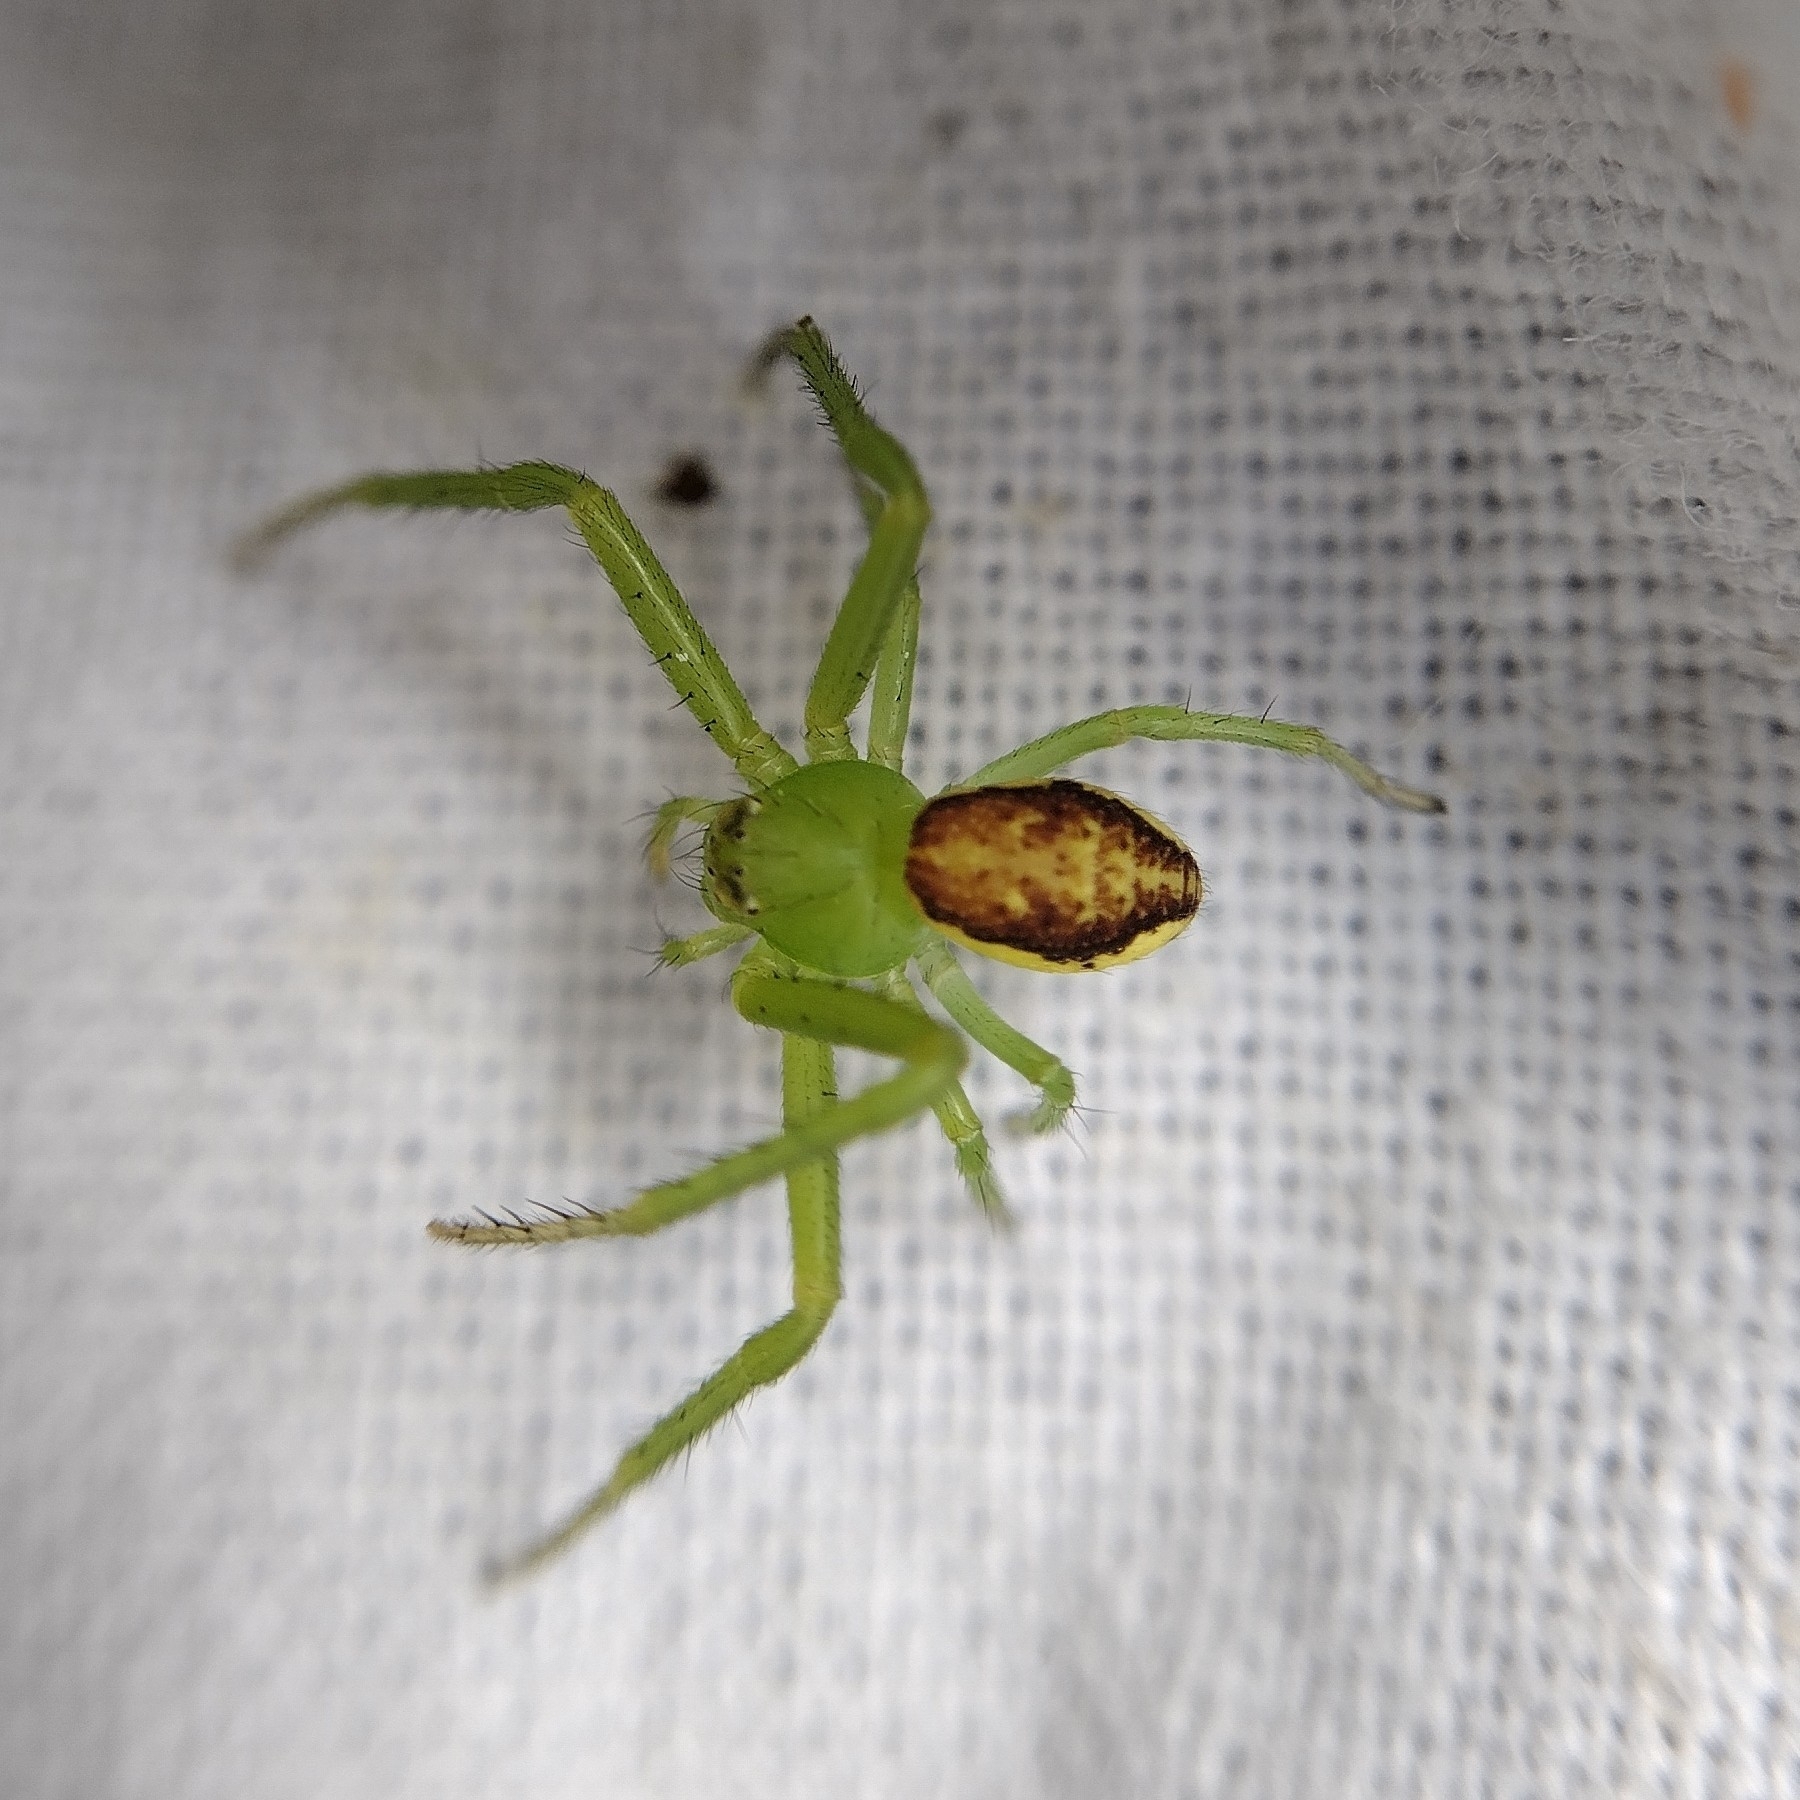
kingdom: Animalia
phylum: Arthropoda
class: Arachnida
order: Araneae
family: Thomisidae
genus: Diaea
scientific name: Diaea dorsata
